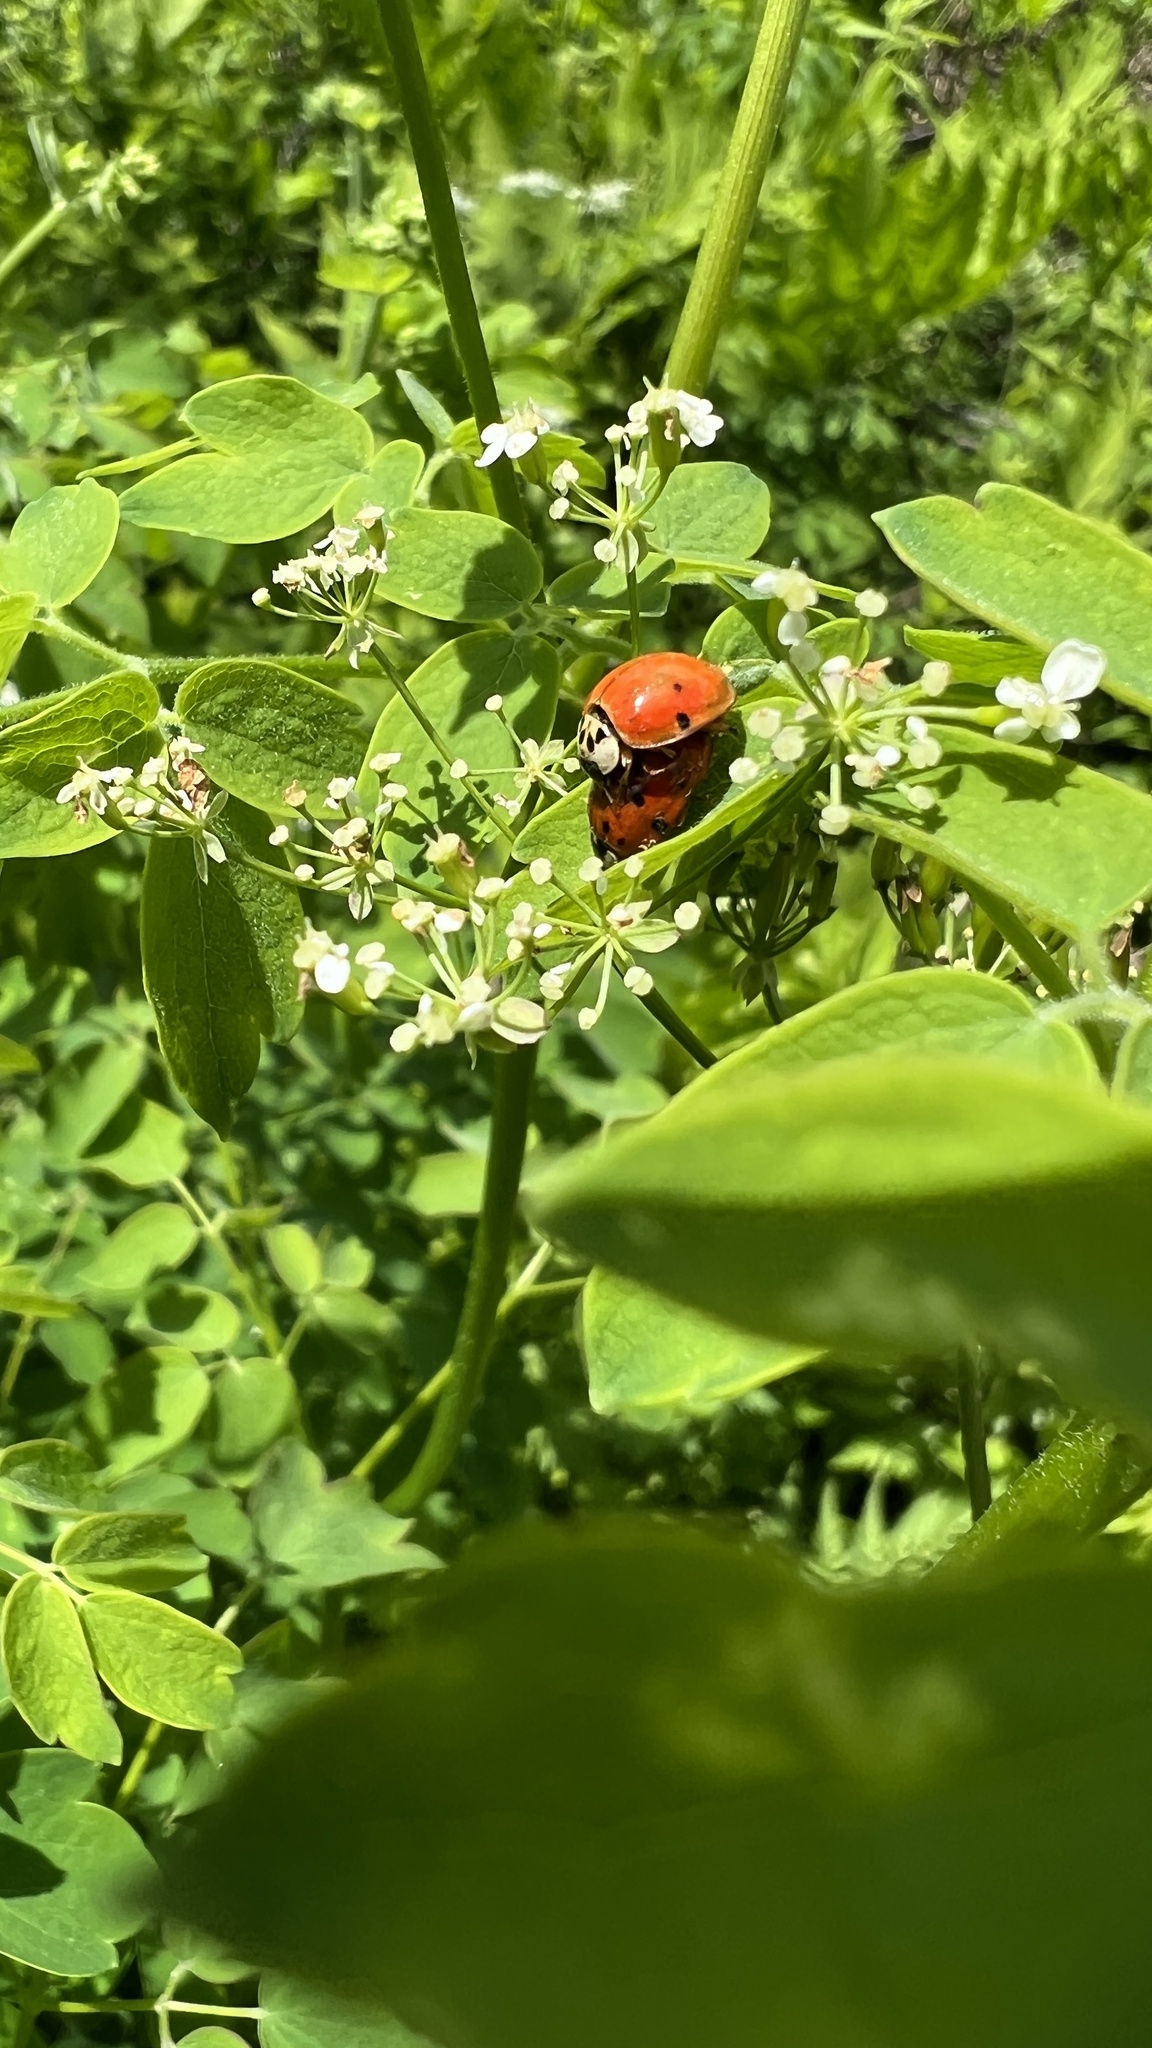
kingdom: Animalia
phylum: Arthropoda
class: Insecta
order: Coleoptera
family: Coccinellidae
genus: Harmonia
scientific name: Harmonia axyridis
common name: Harlequin ladybird
